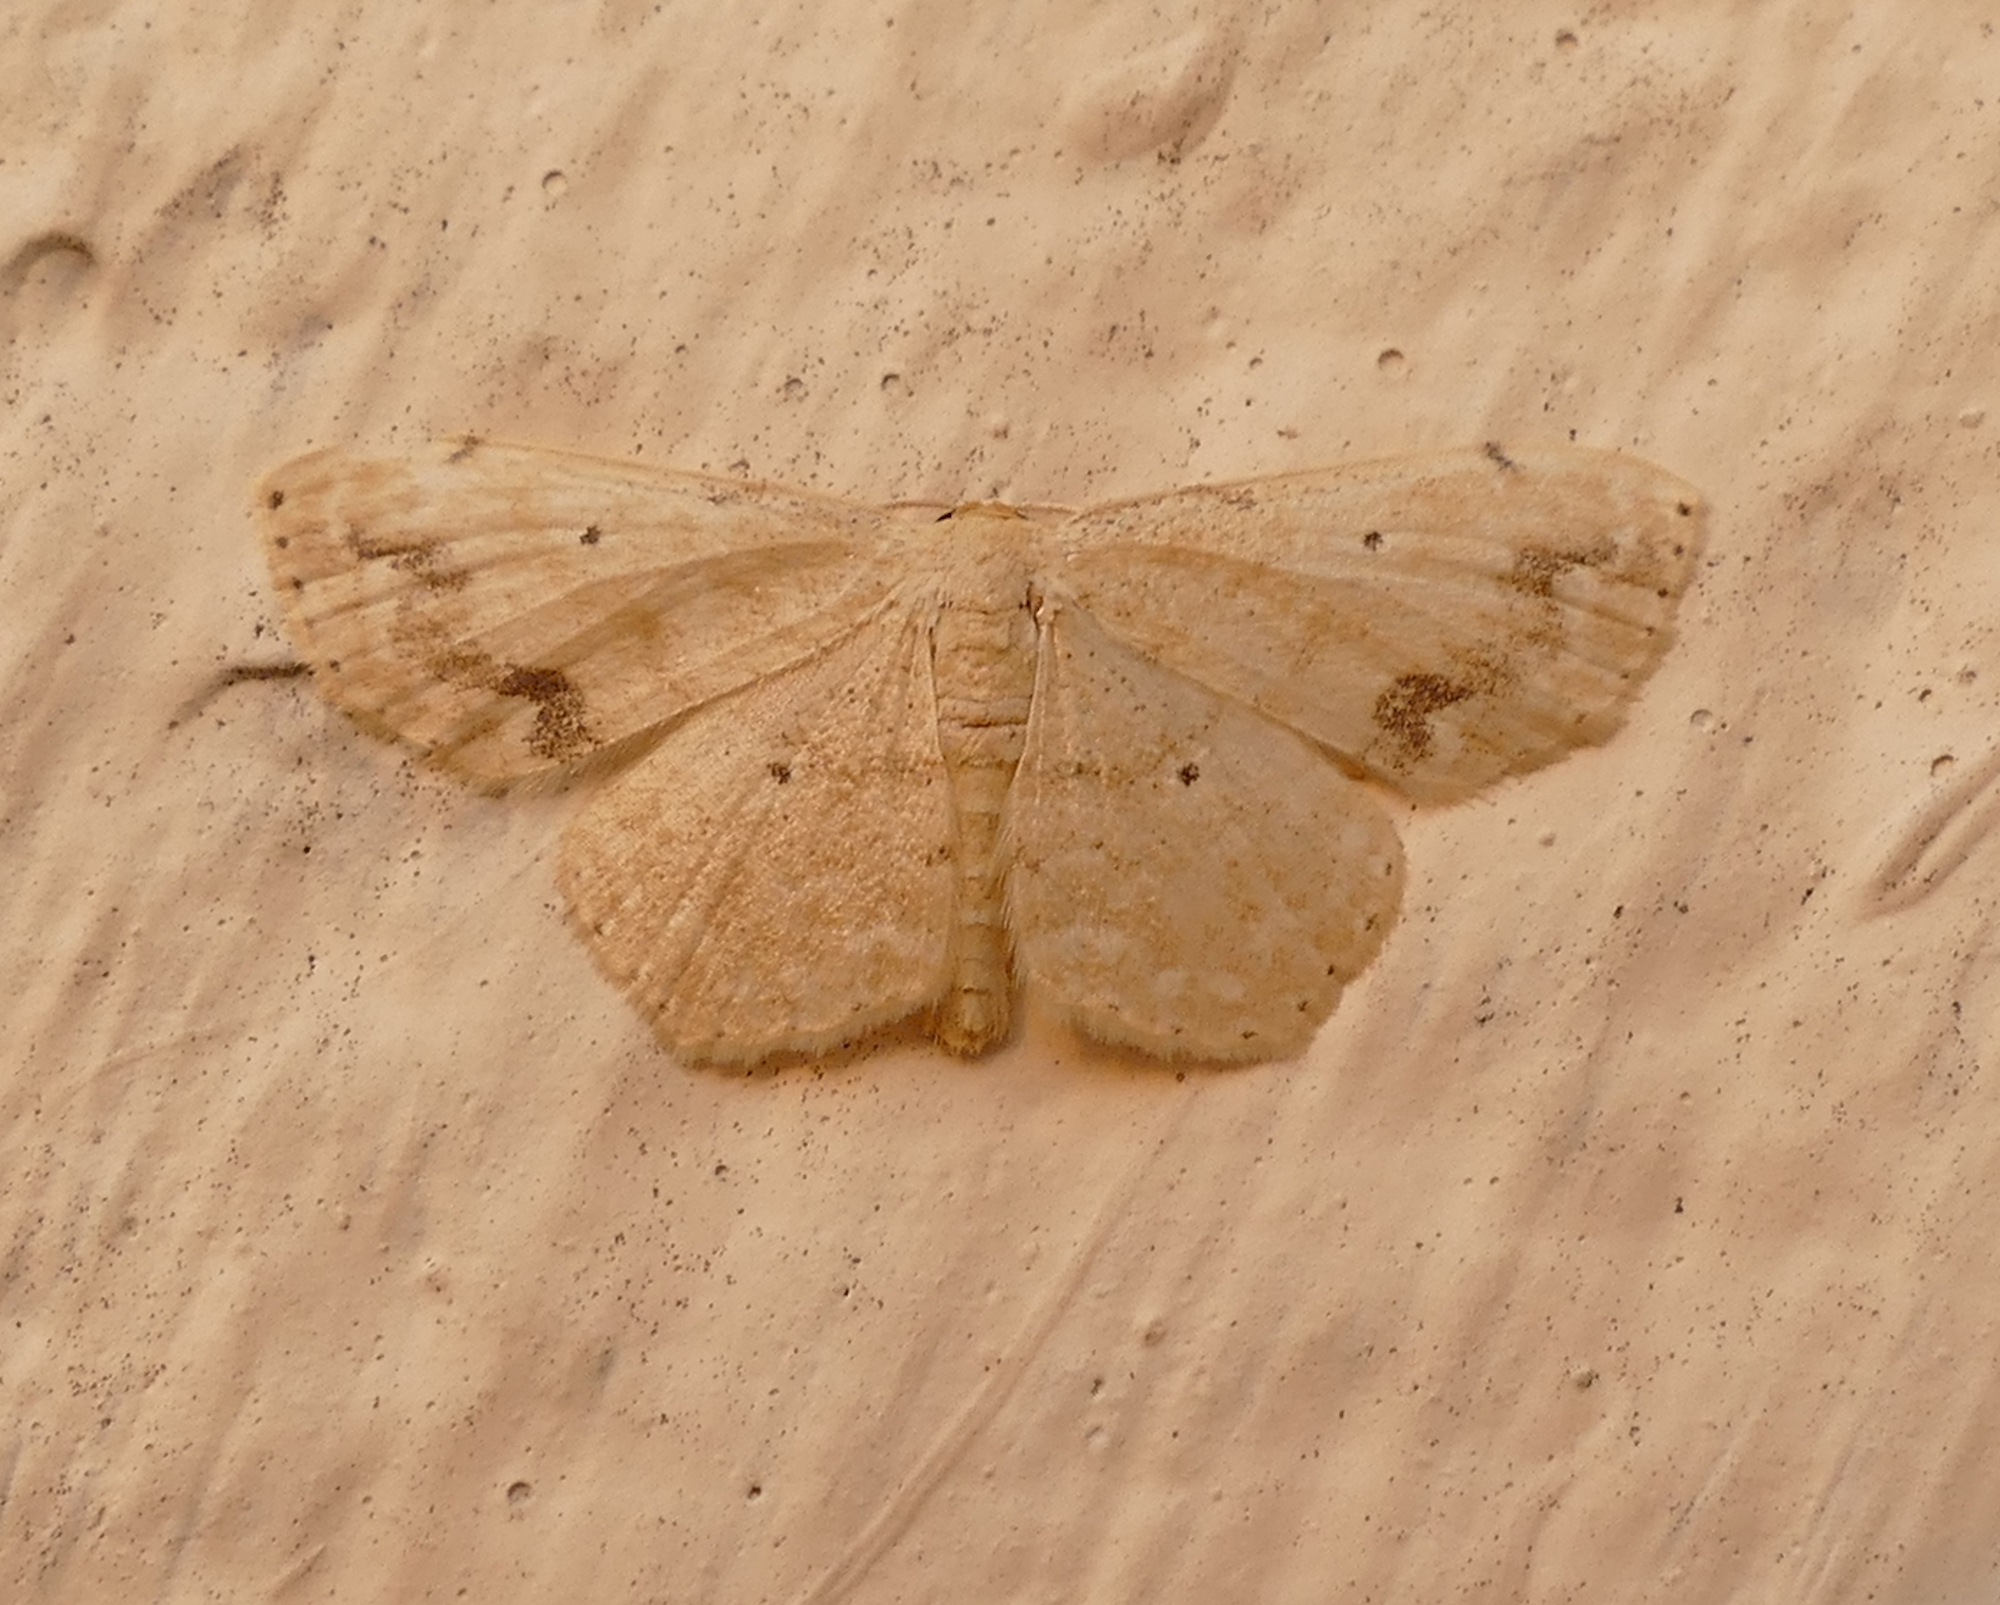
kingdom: Animalia
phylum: Arthropoda
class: Insecta
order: Lepidoptera
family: Geometridae
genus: Scopula
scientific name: Scopula compensata
